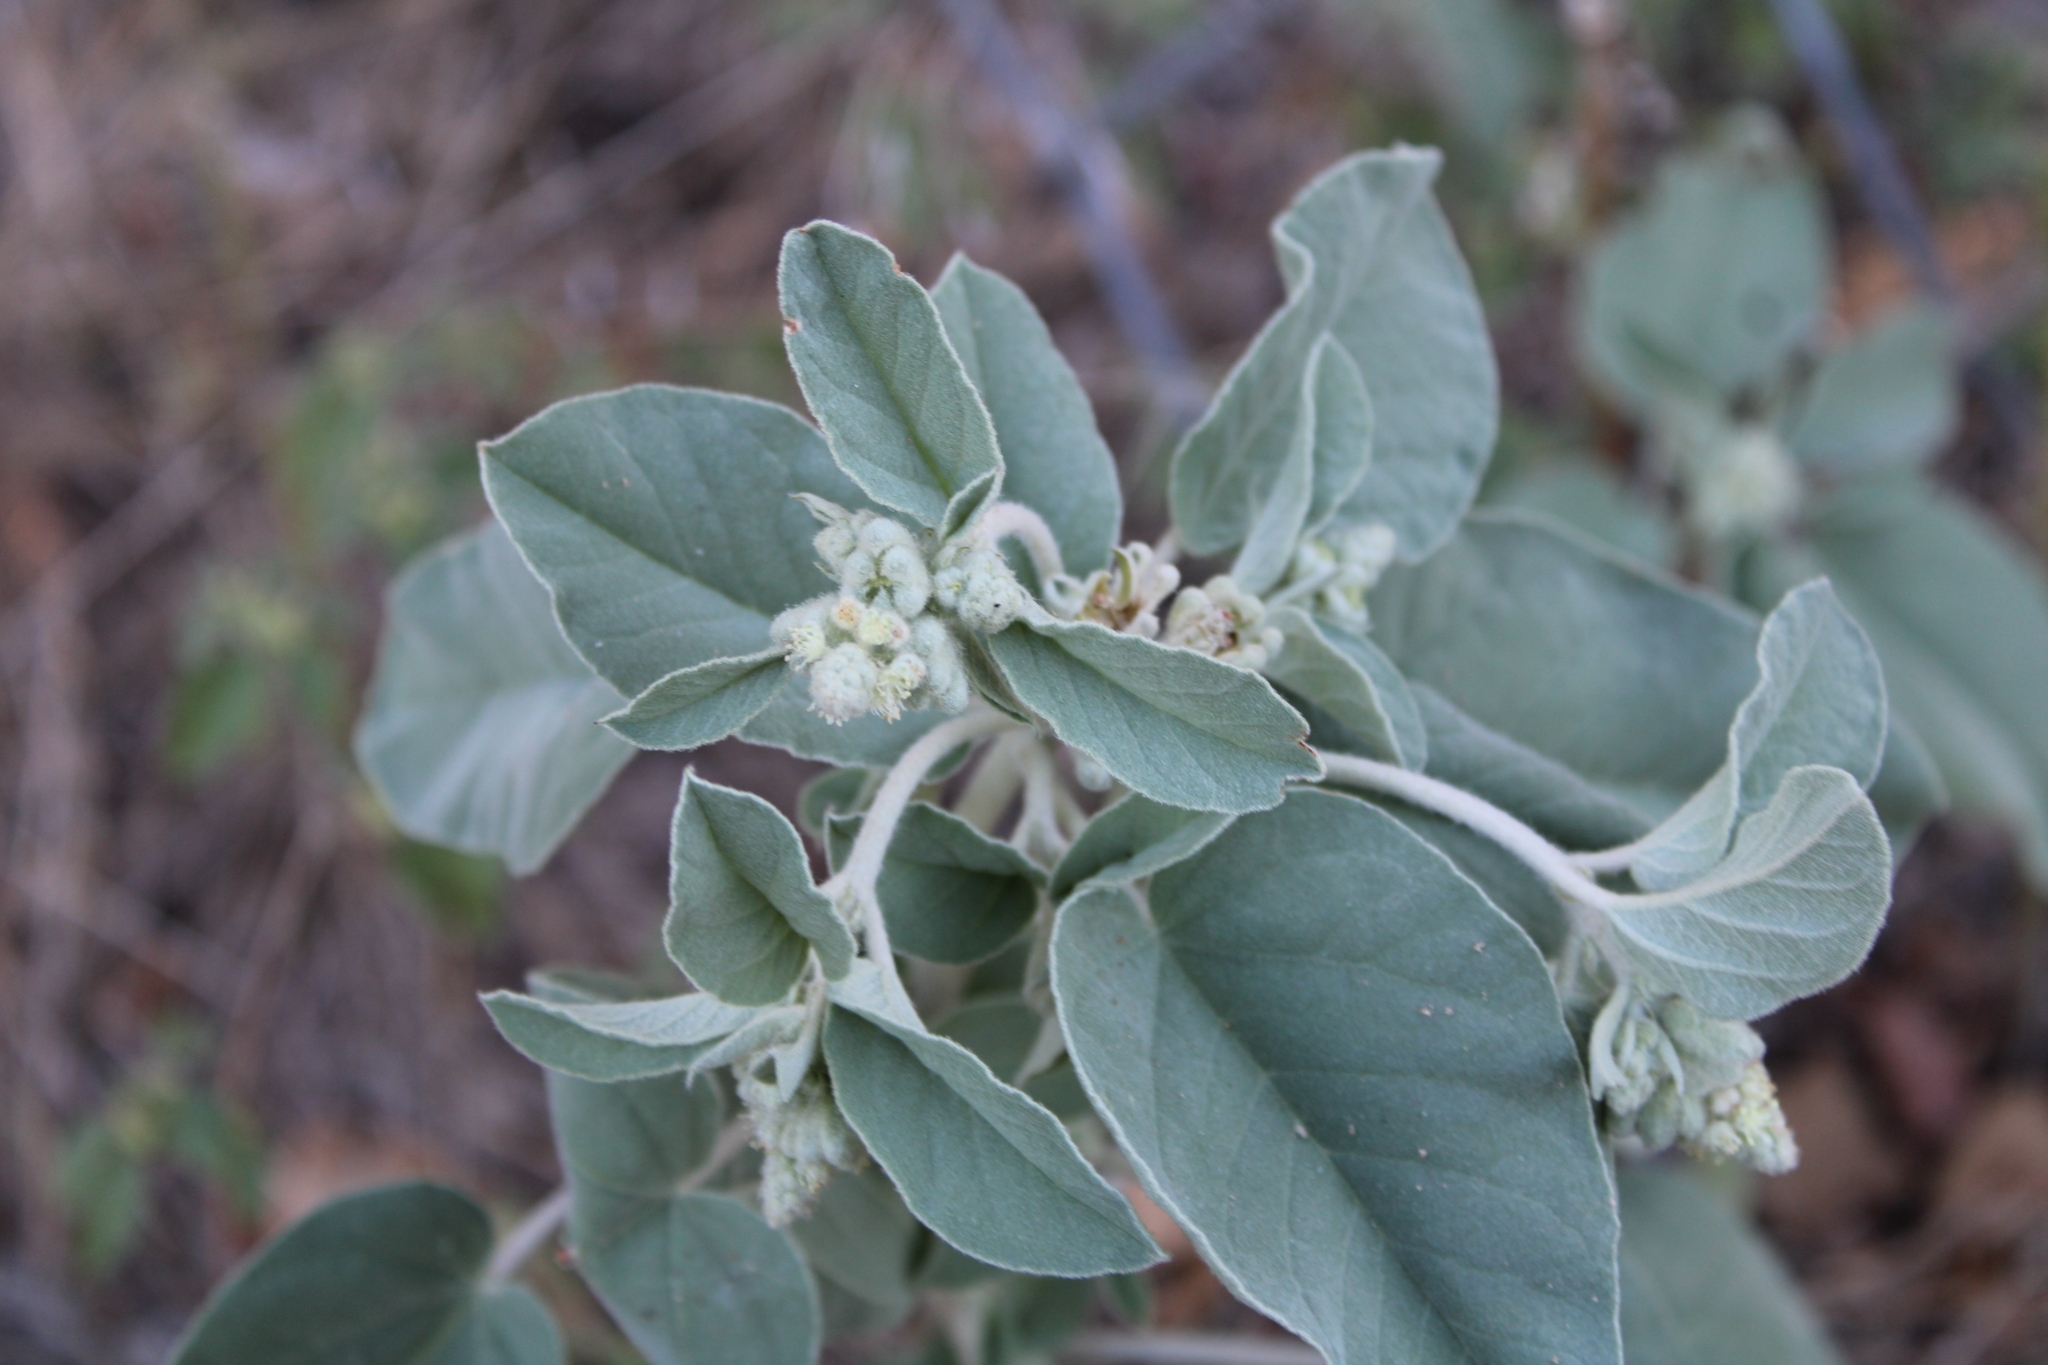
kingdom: Plantae
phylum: Tracheophyta
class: Magnoliopsida
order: Malpighiales
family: Euphorbiaceae
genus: Croton
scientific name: Croton heptalon
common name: Woolly croton
